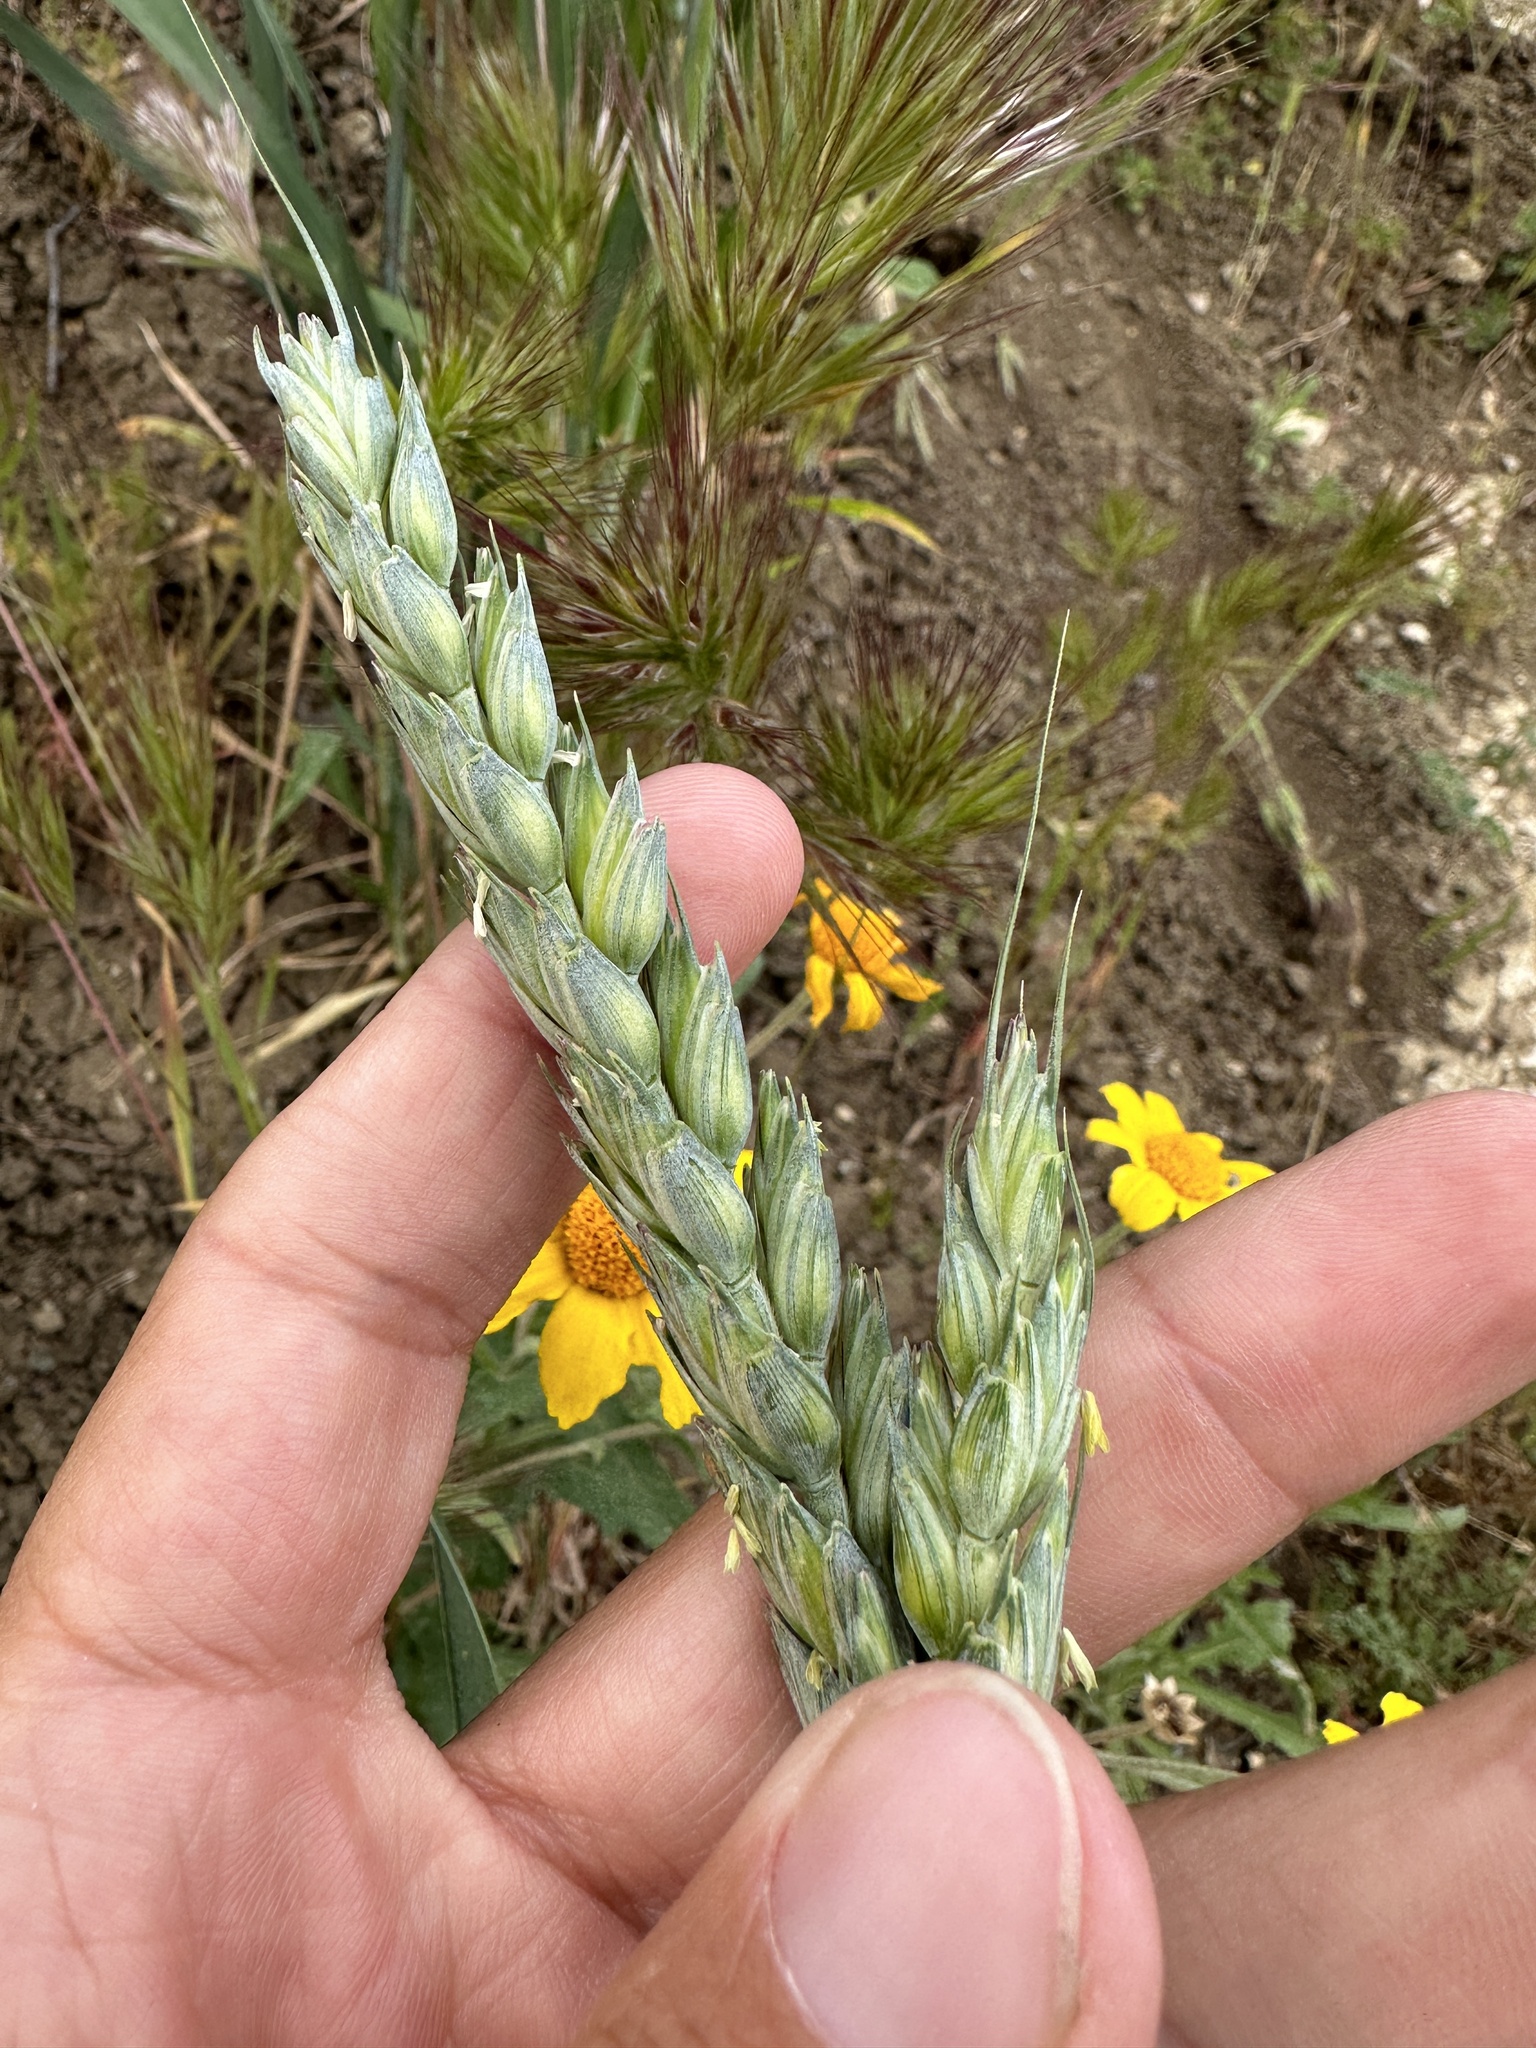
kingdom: Plantae
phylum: Tracheophyta
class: Liliopsida
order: Poales
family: Poaceae
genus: Triticum
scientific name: Triticum aestivum
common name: Common wheat
